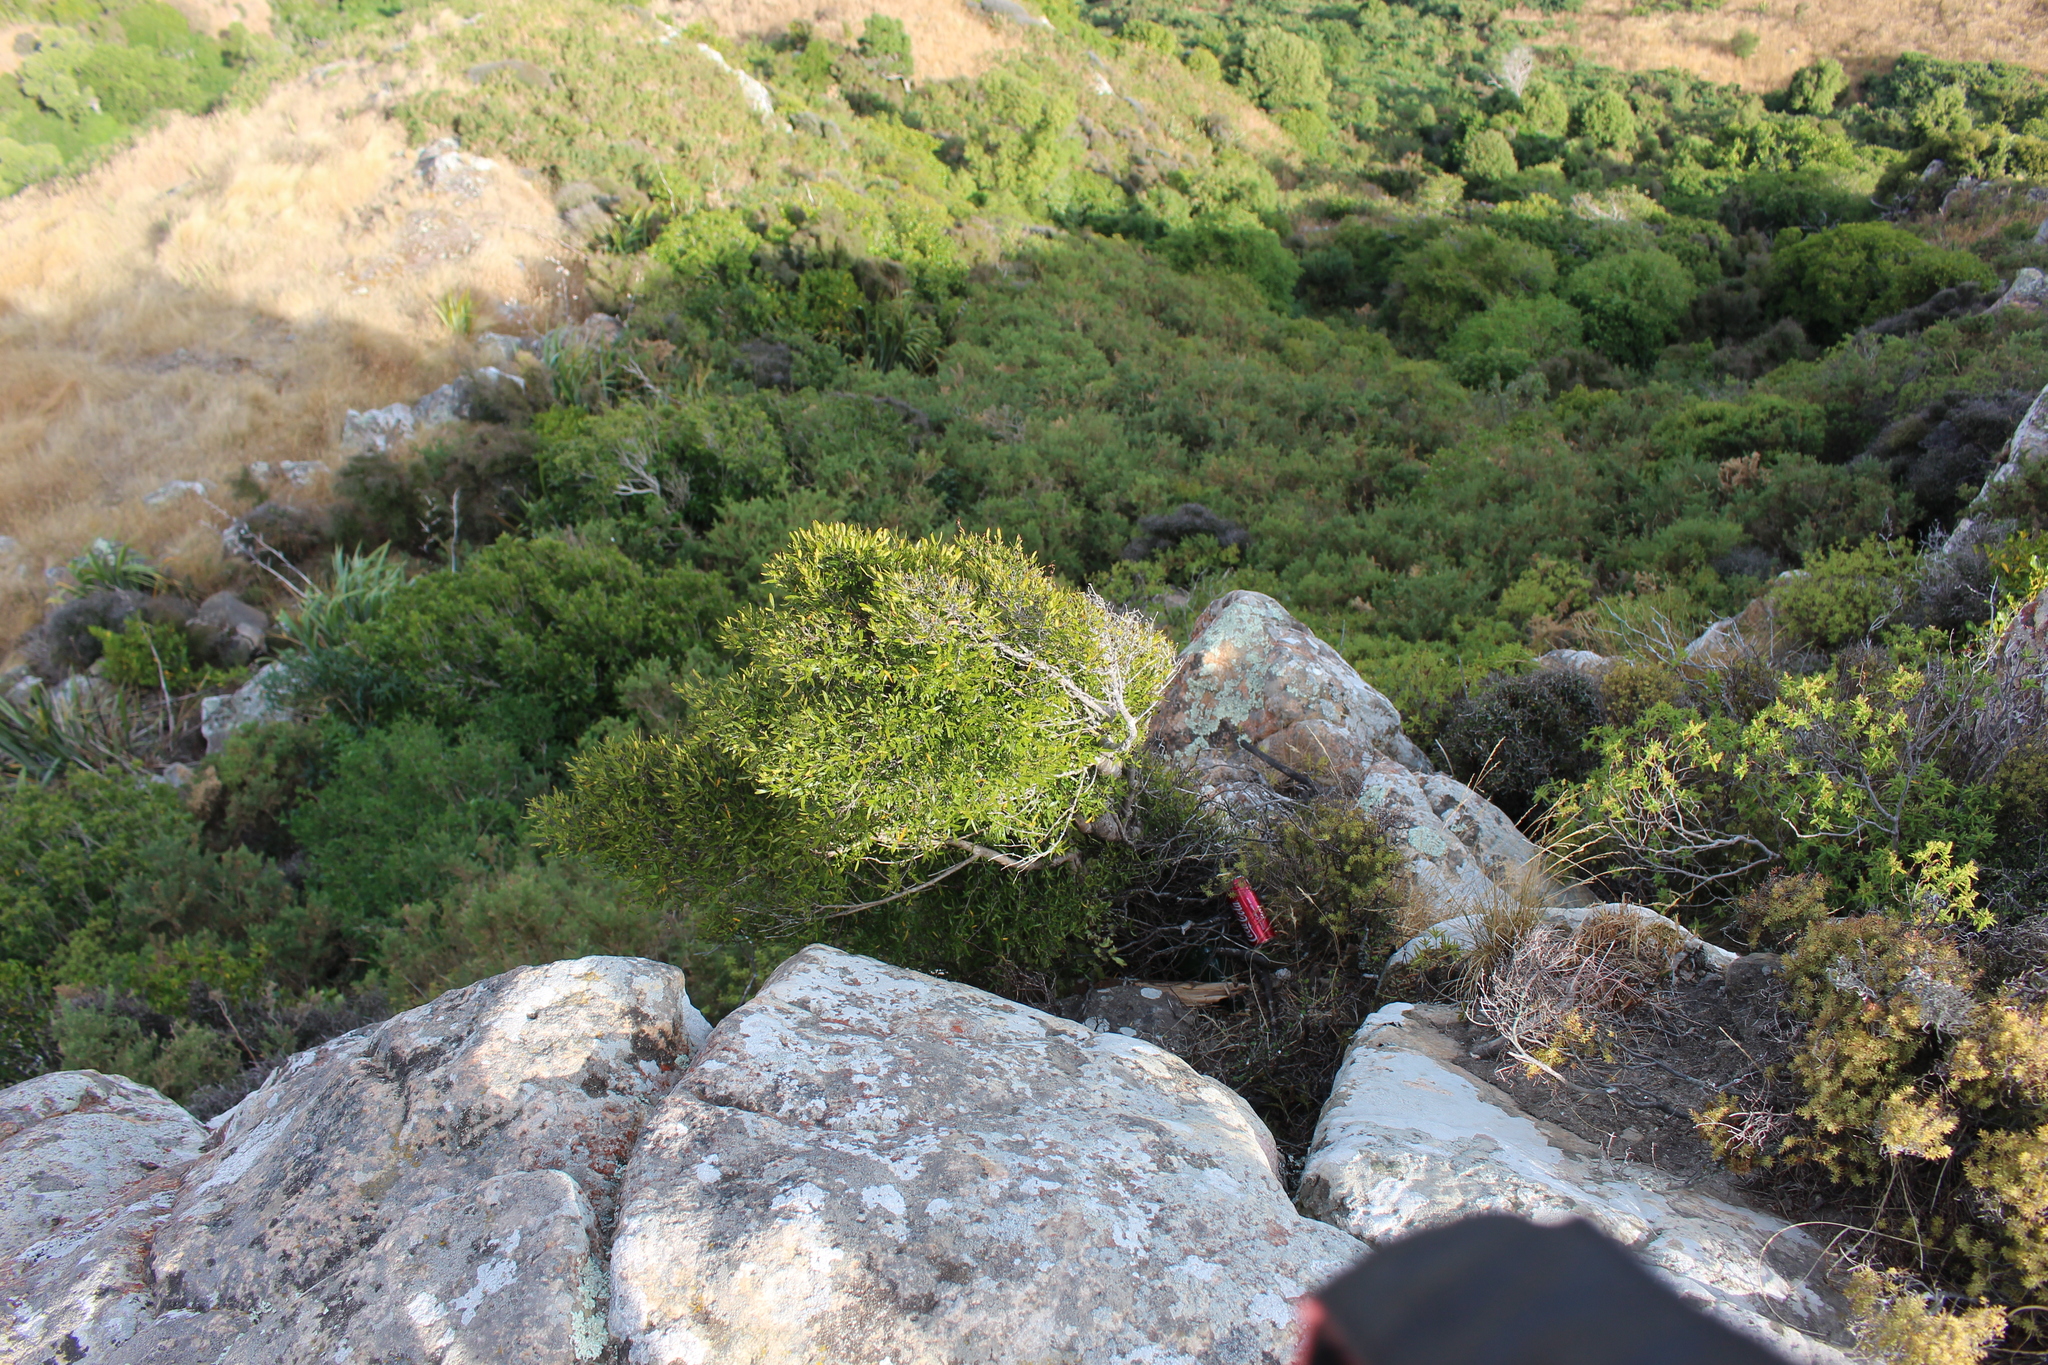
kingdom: Plantae
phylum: Tracheophyta
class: Magnoliopsida
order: Gentianales
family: Rubiaceae
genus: Coprosma
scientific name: Coprosma linariifolia
